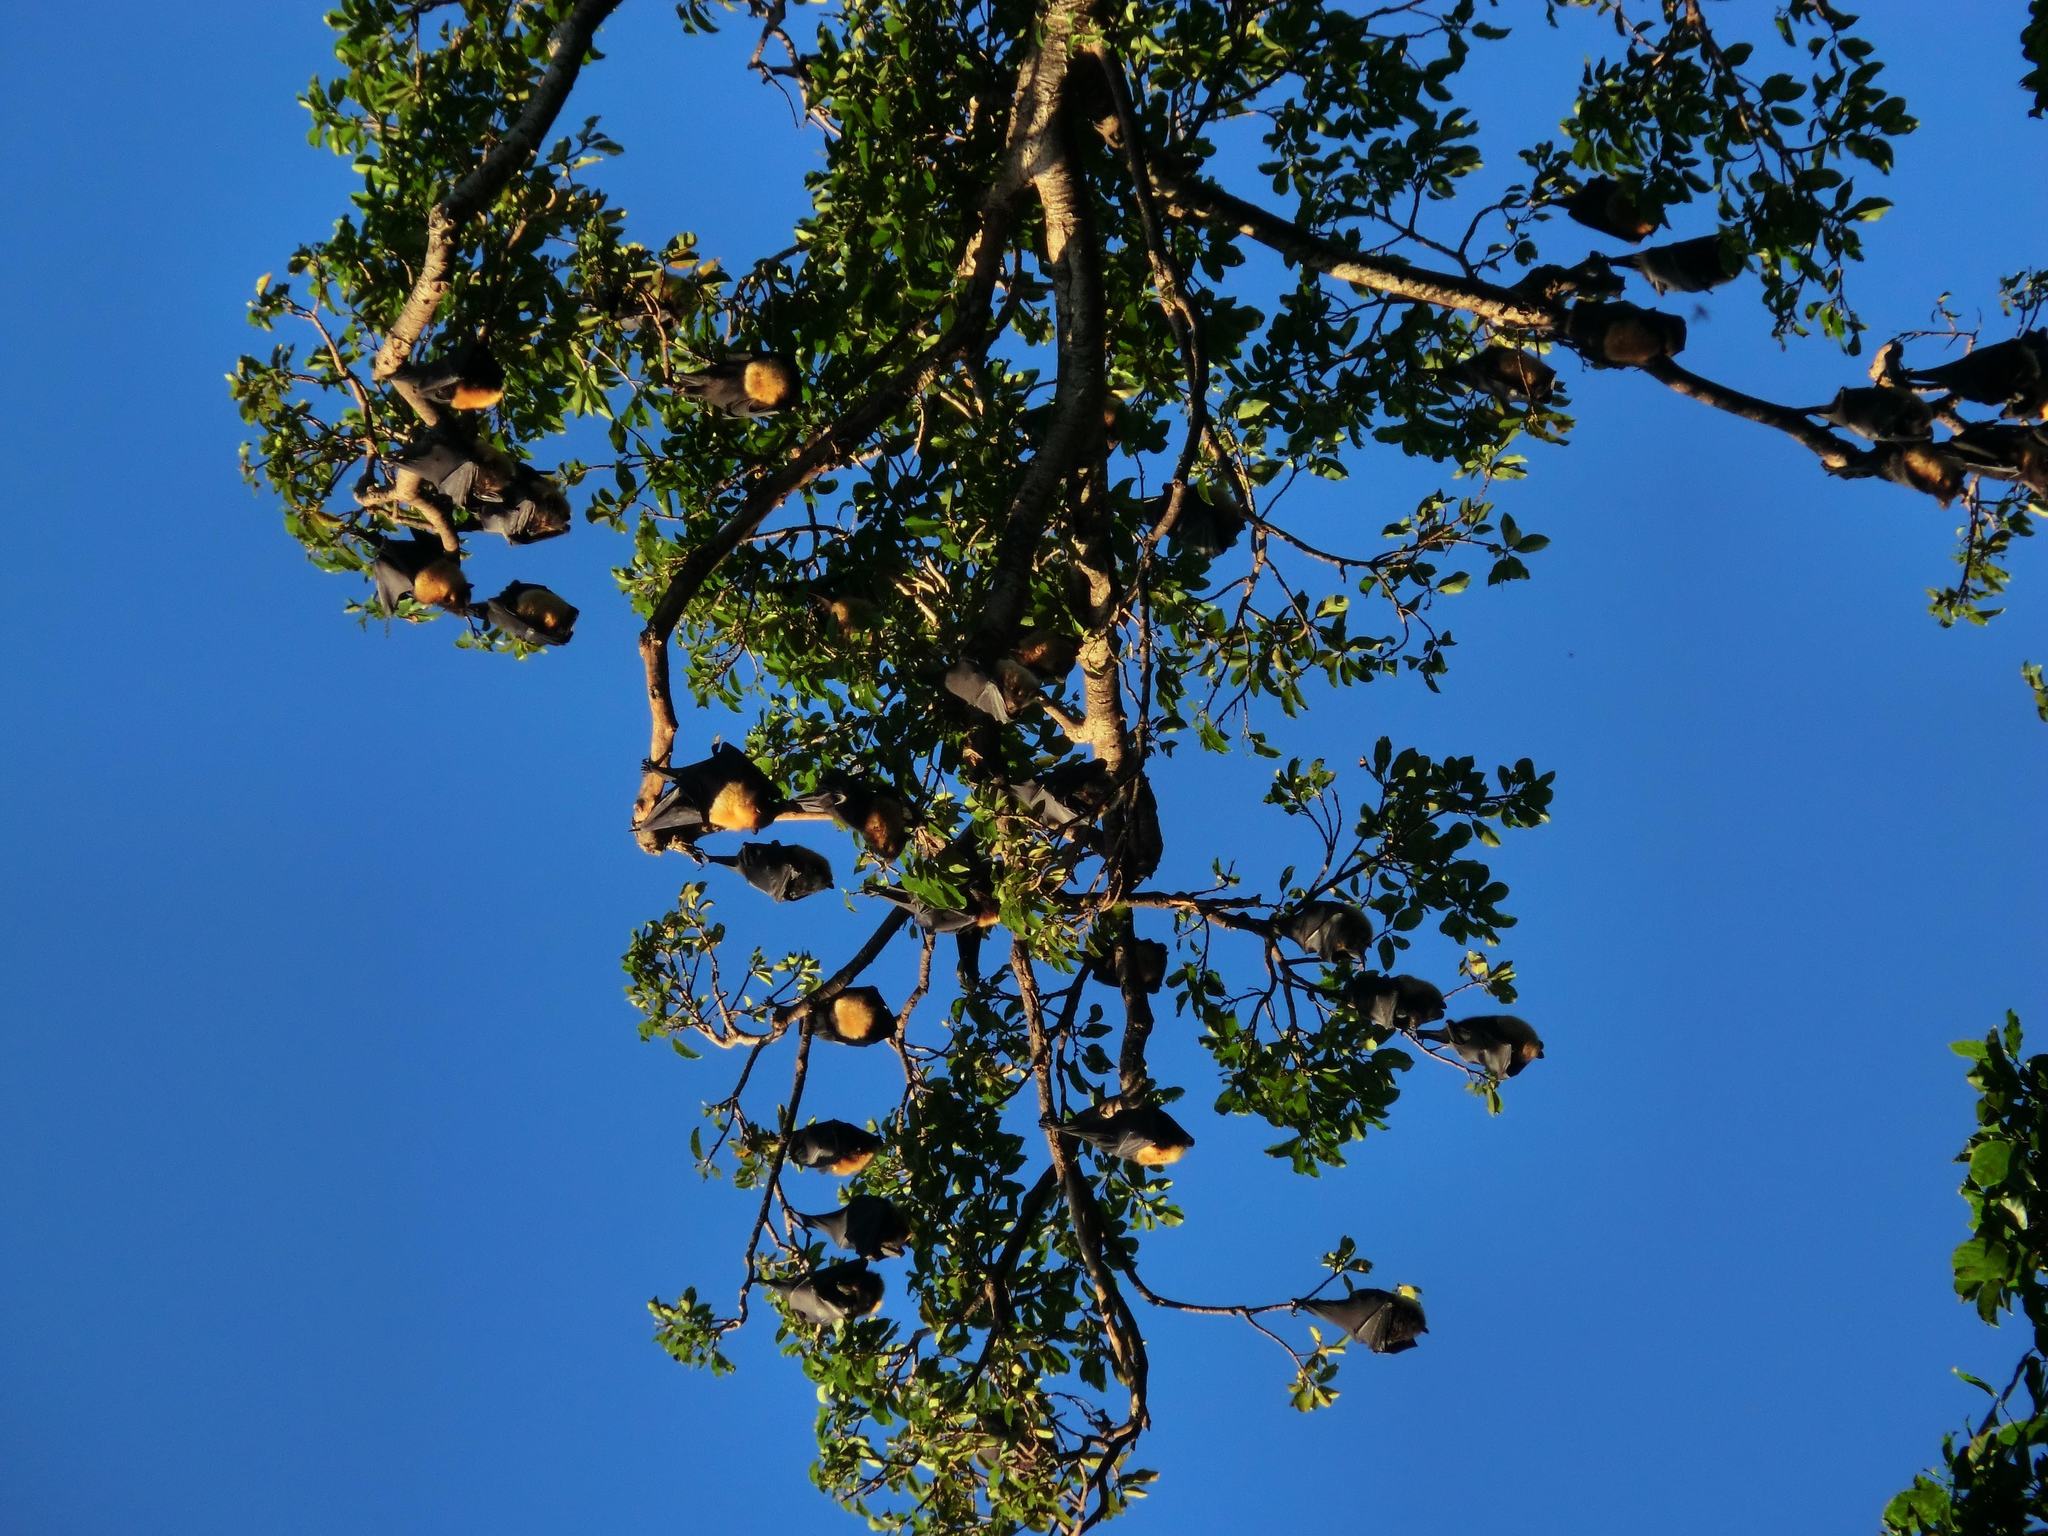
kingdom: Animalia
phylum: Chordata
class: Mammalia
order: Chiroptera
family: Pteropodidae
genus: Pteropus
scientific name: Pteropus tonganus
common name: Pacific flying fox
